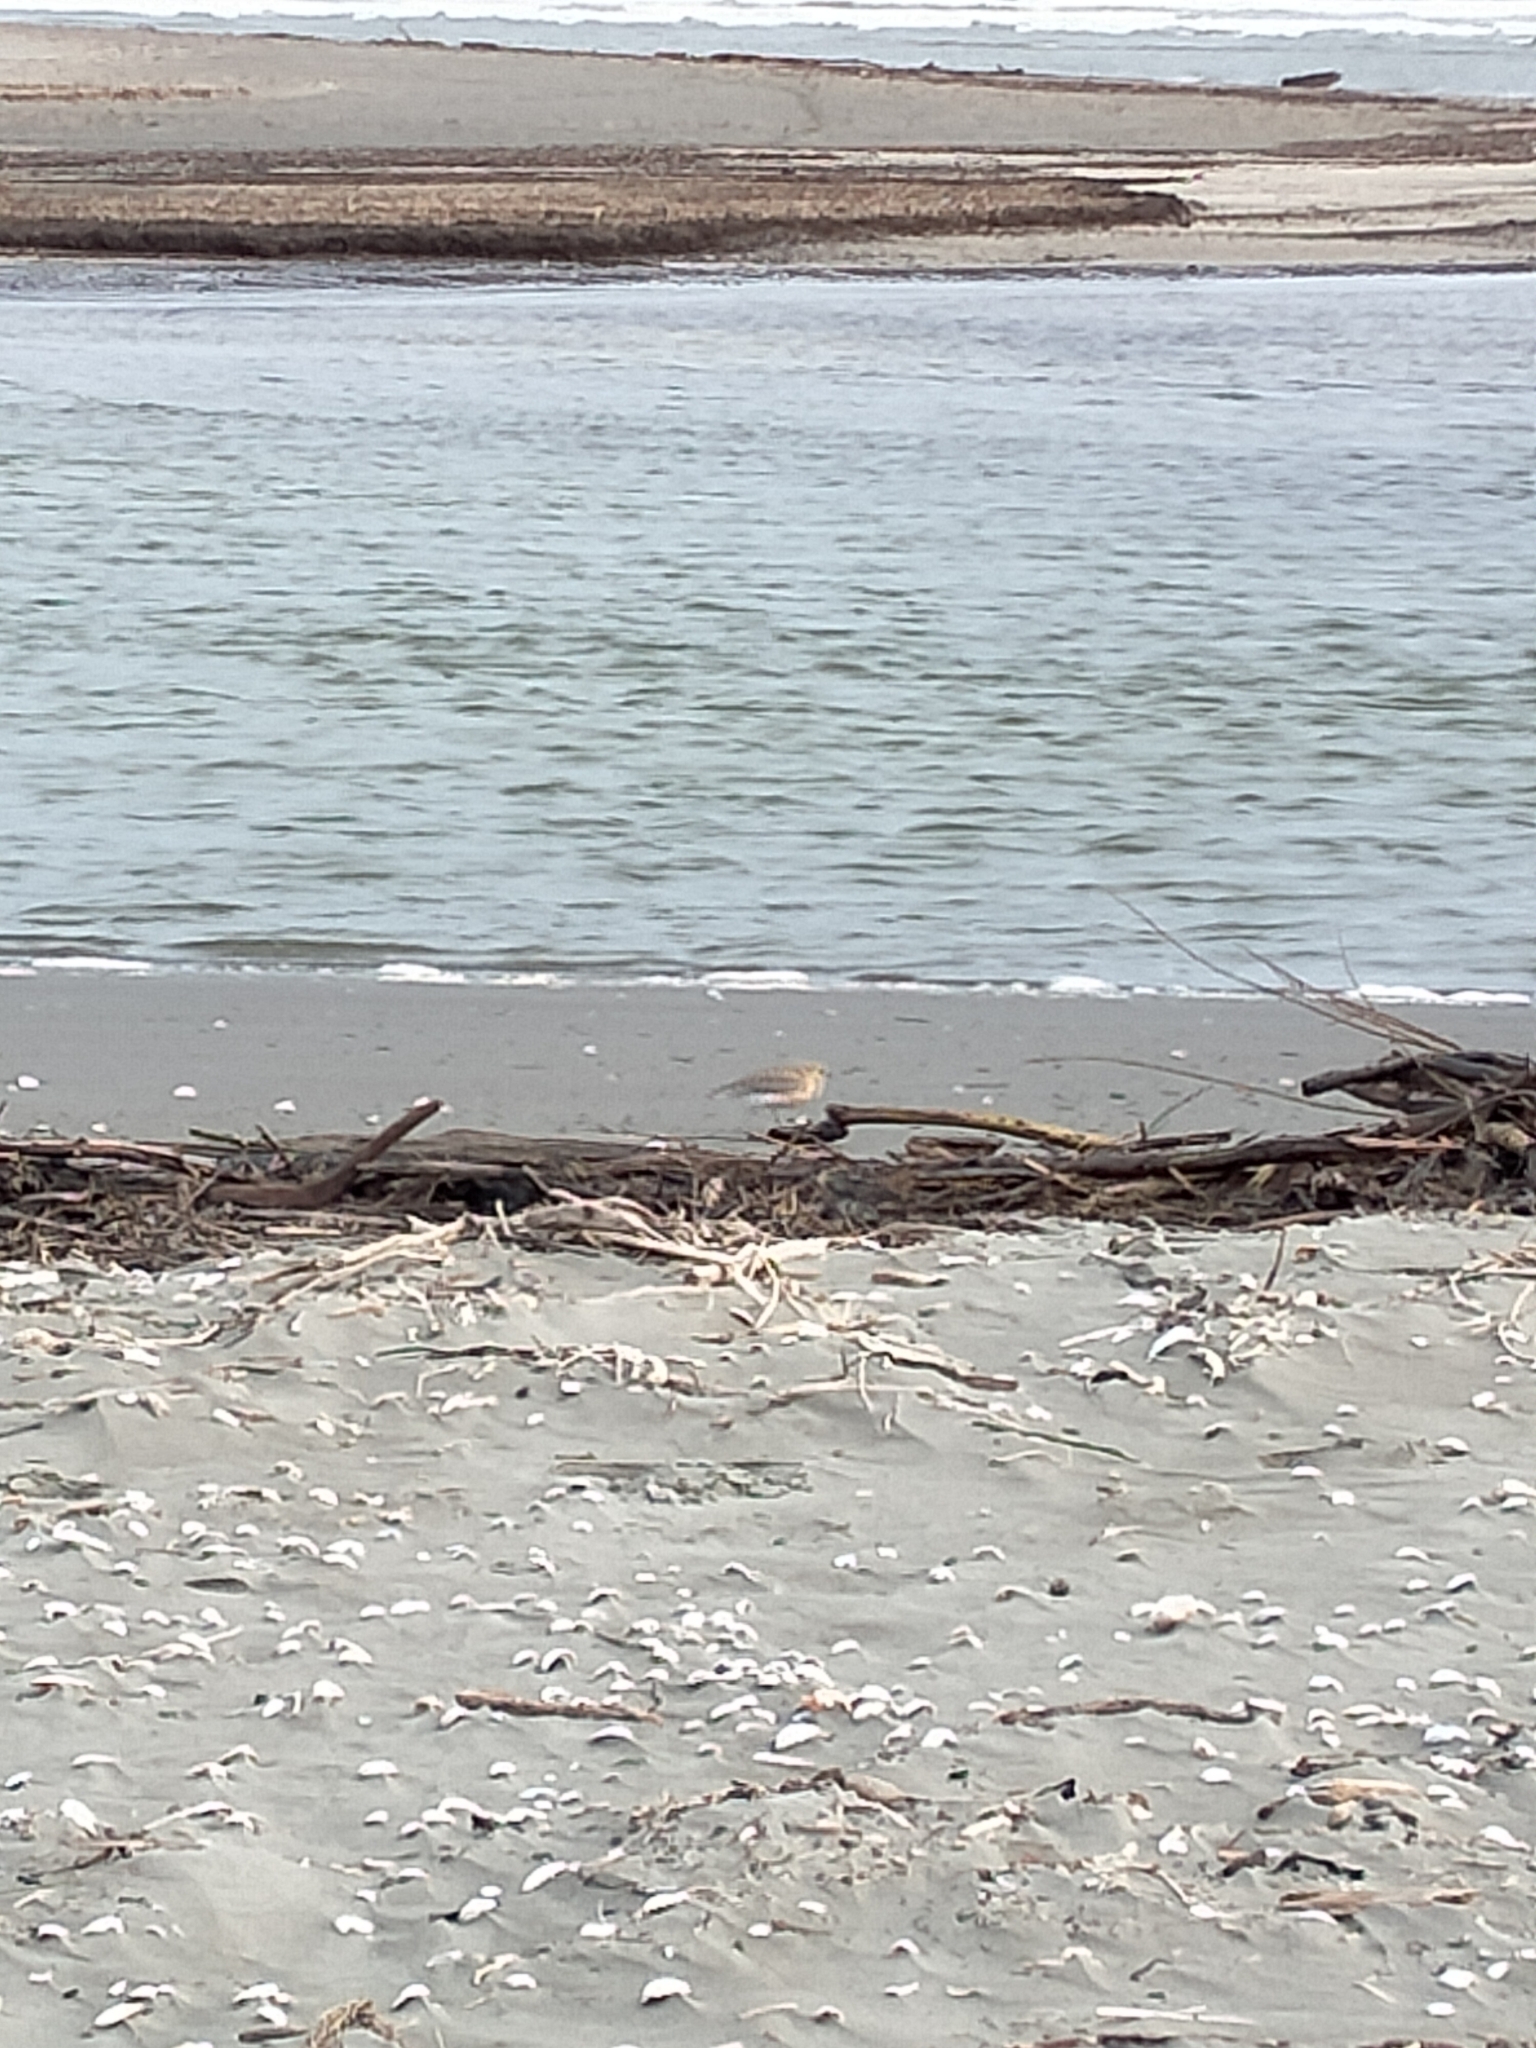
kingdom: Animalia
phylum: Chordata
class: Aves
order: Charadriiformes
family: Charadriidae
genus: Anarhynchus
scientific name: Anarhynchus
